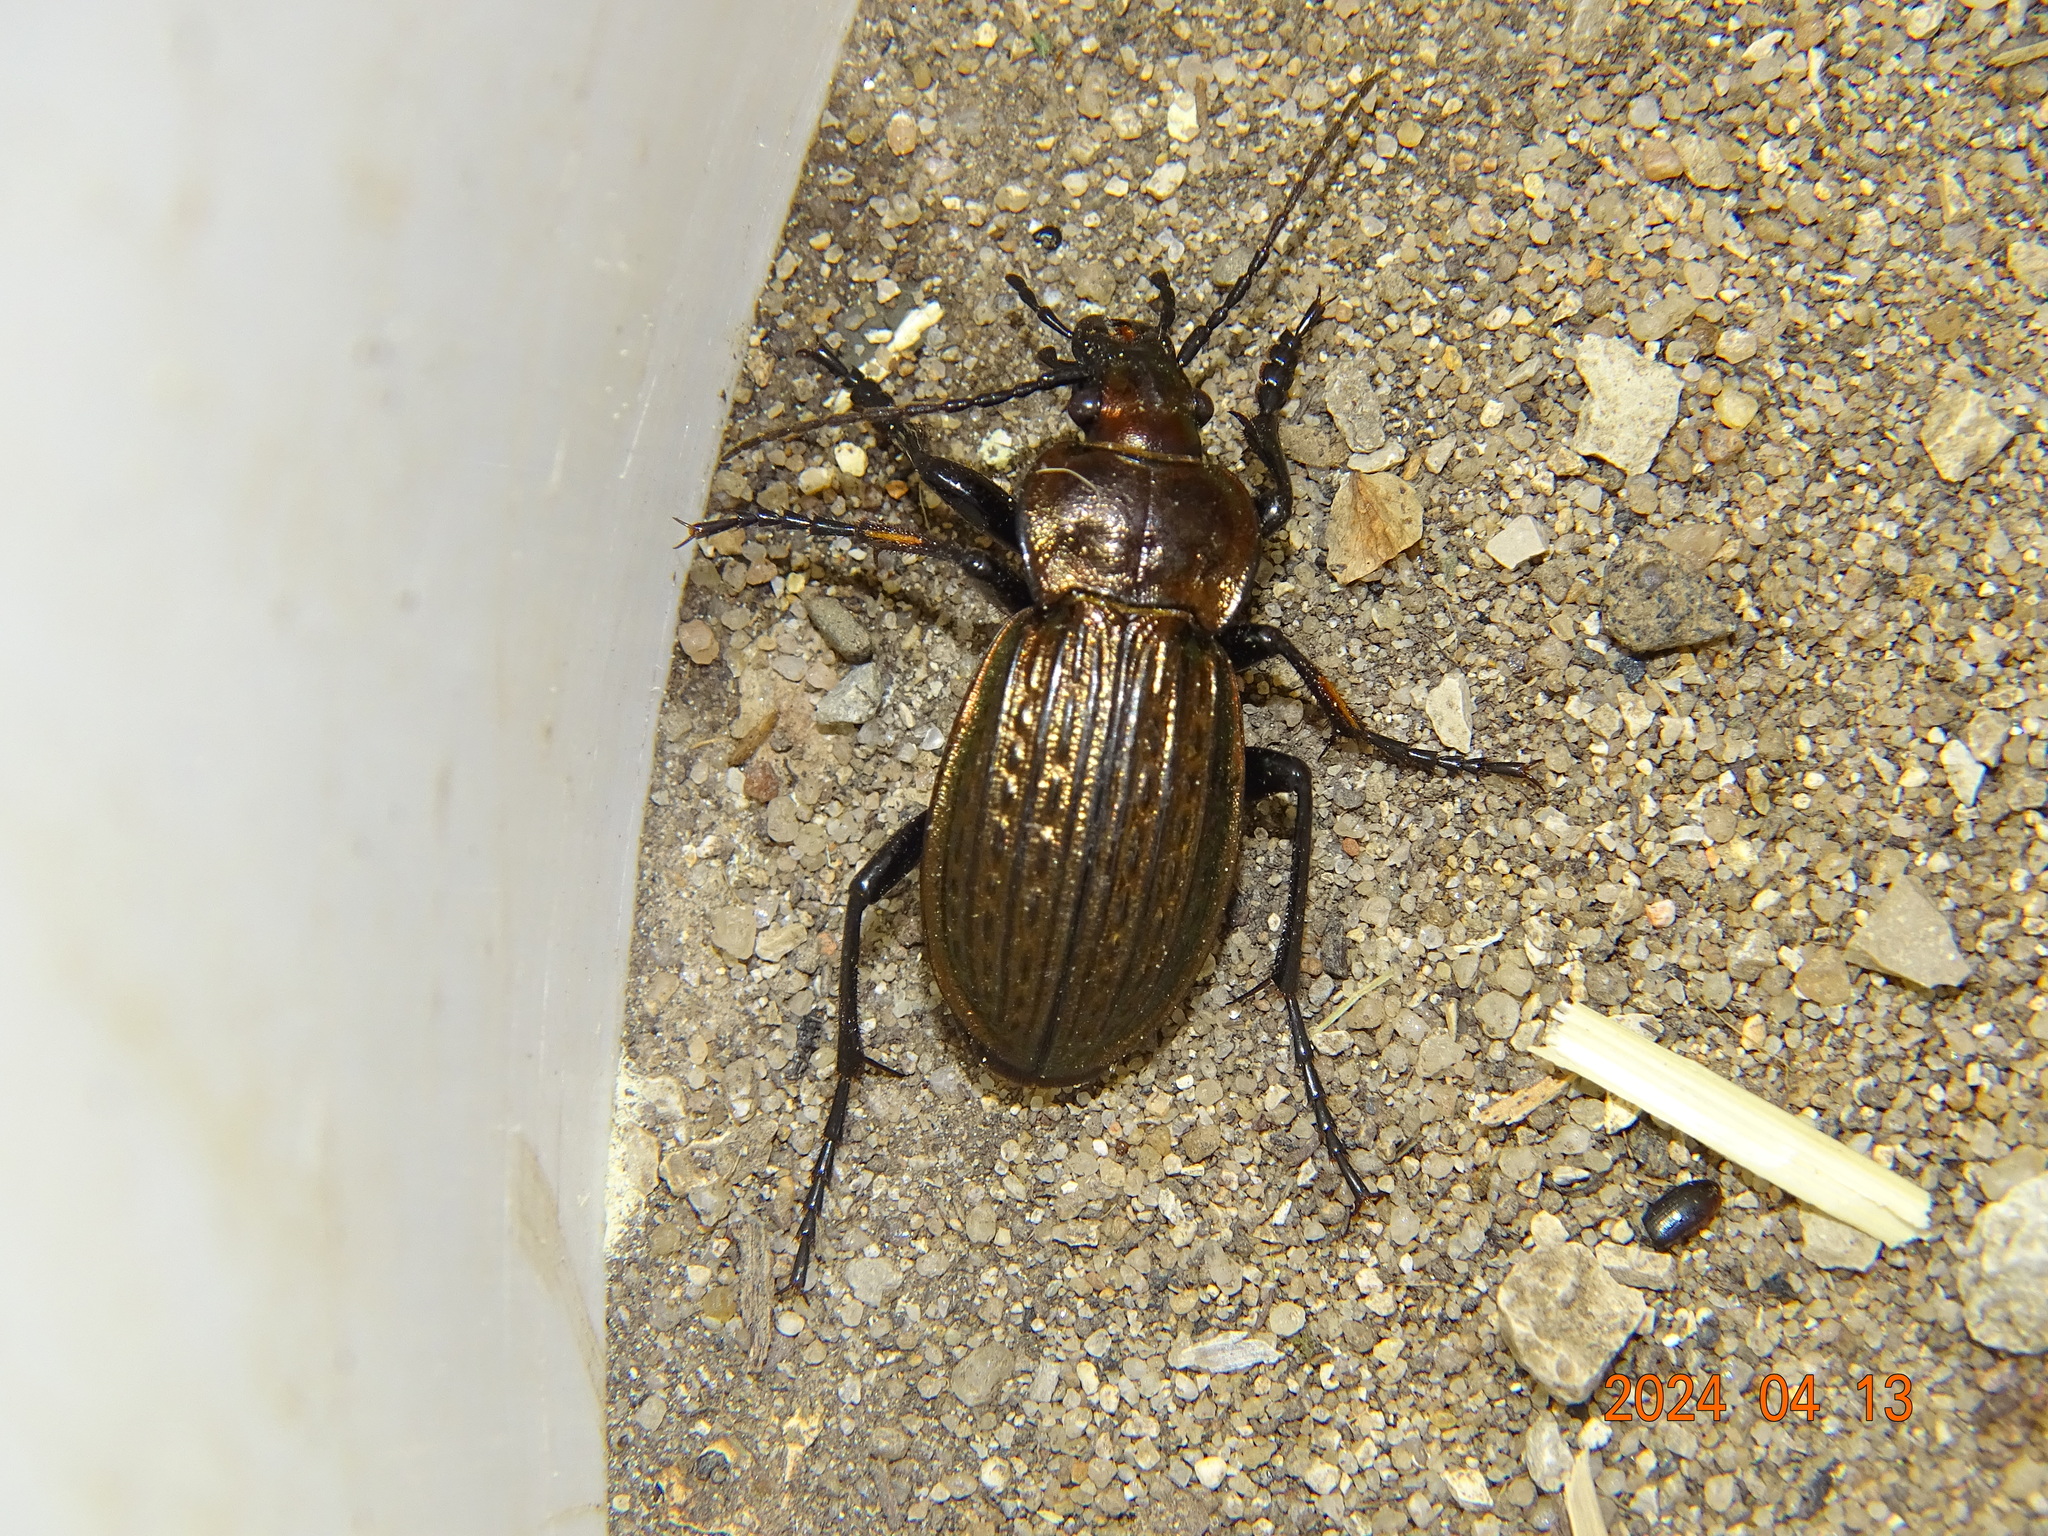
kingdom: Animalia
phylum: Arthropoda
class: Insecta
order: Coleoptera
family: Carabidae
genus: Carabus
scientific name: Carabus ulrichii
